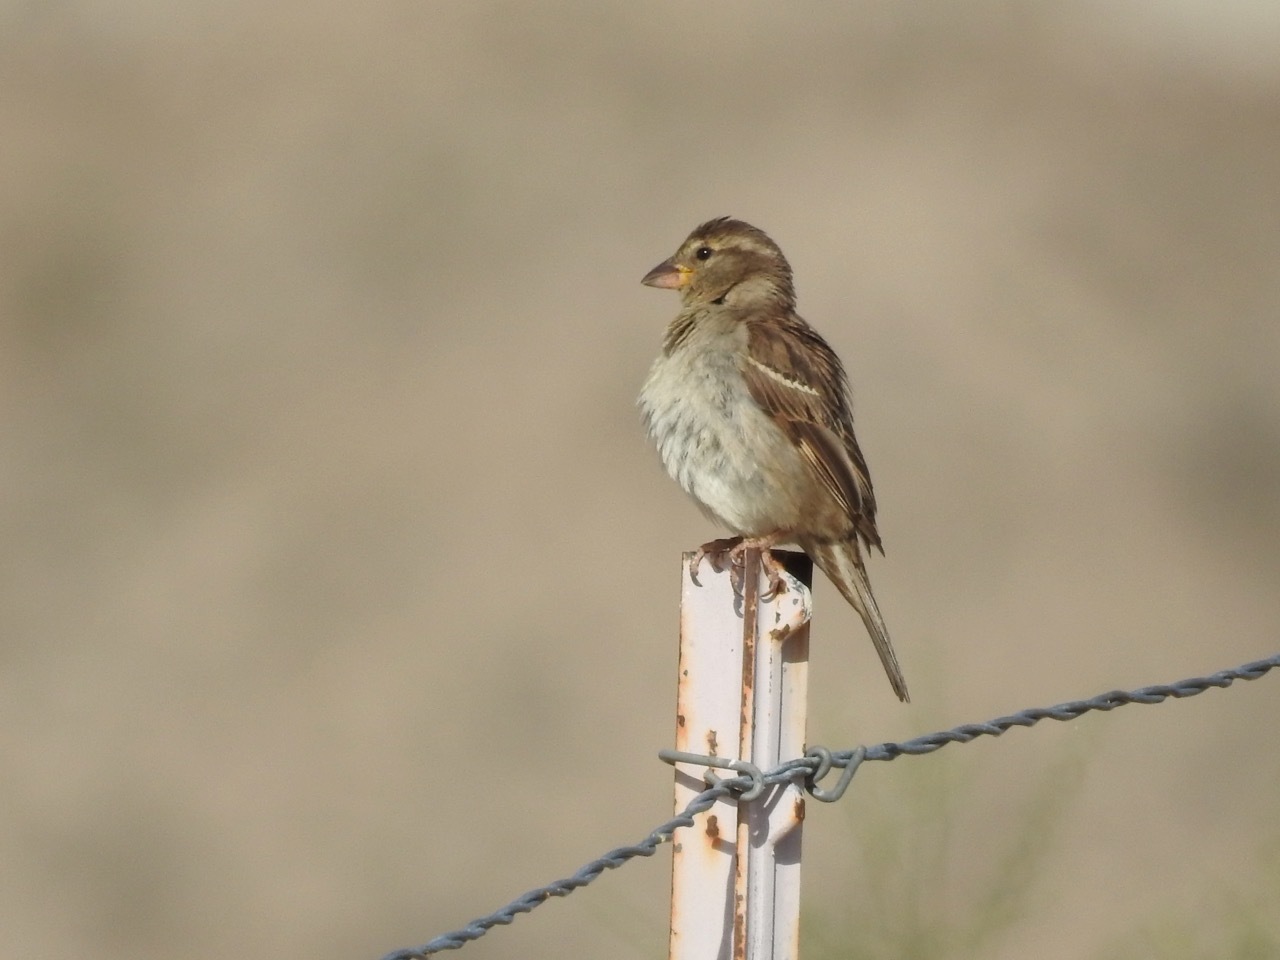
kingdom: Animalia
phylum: Chordata
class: Aves
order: Passeriformes
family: Passeridae
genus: Passer
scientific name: Passer domesticus
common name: House sparrow
